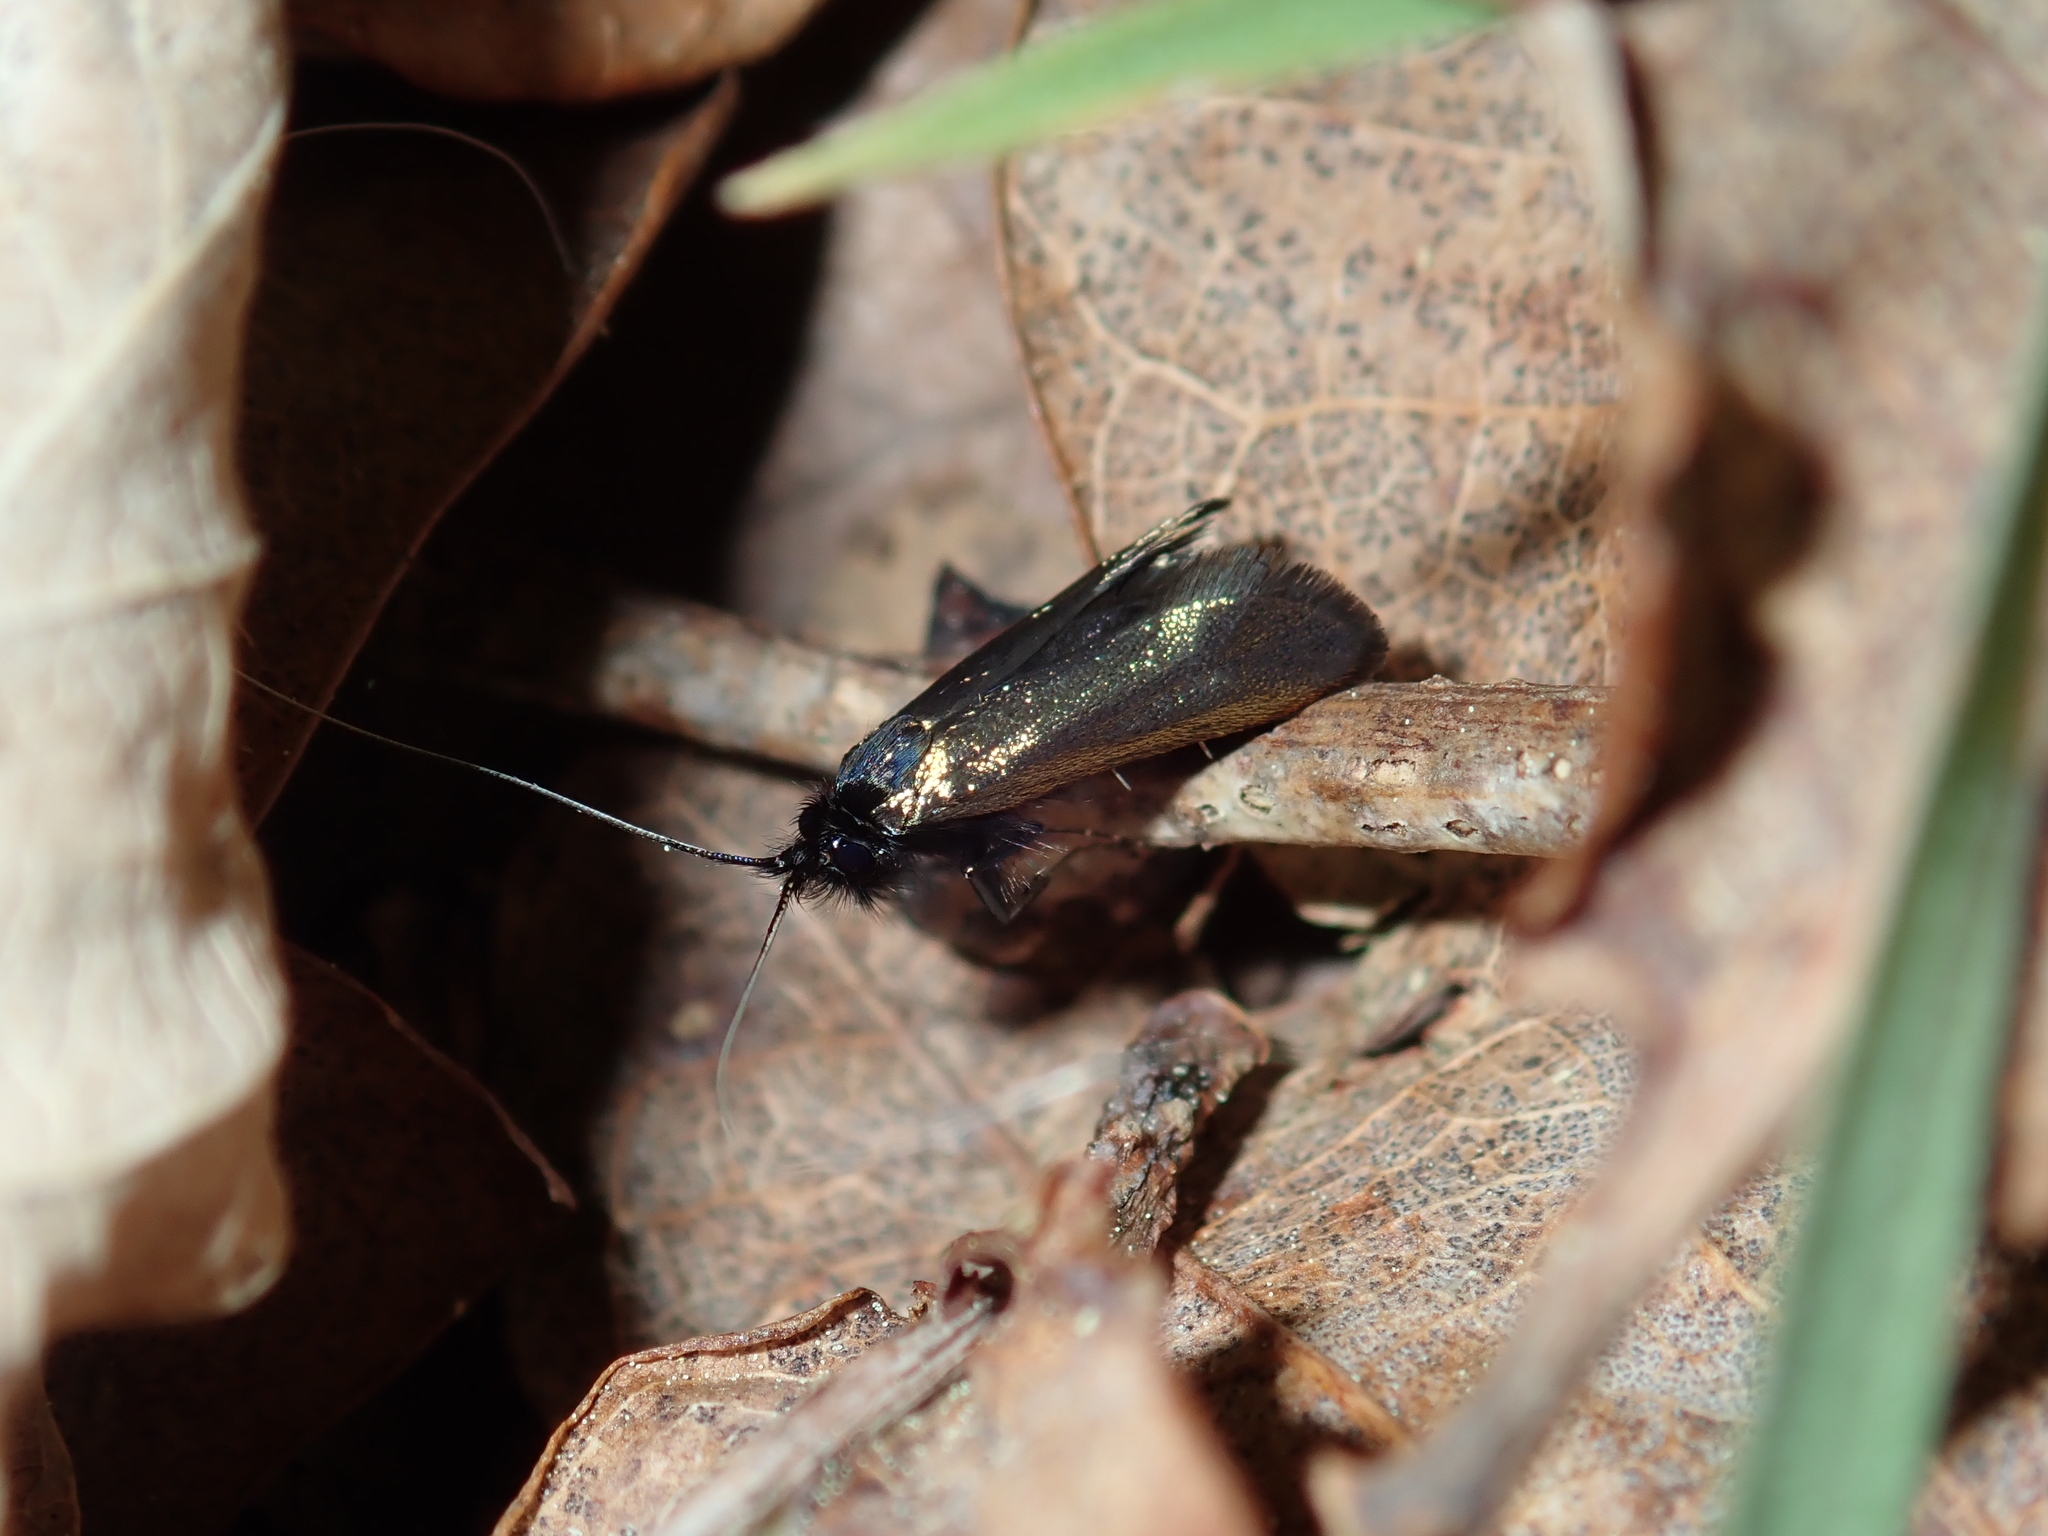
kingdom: Animalia
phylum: Arthropoda
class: Insecta
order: Lepidoptera
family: Adelidae
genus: Adela
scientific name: Adela viridella
